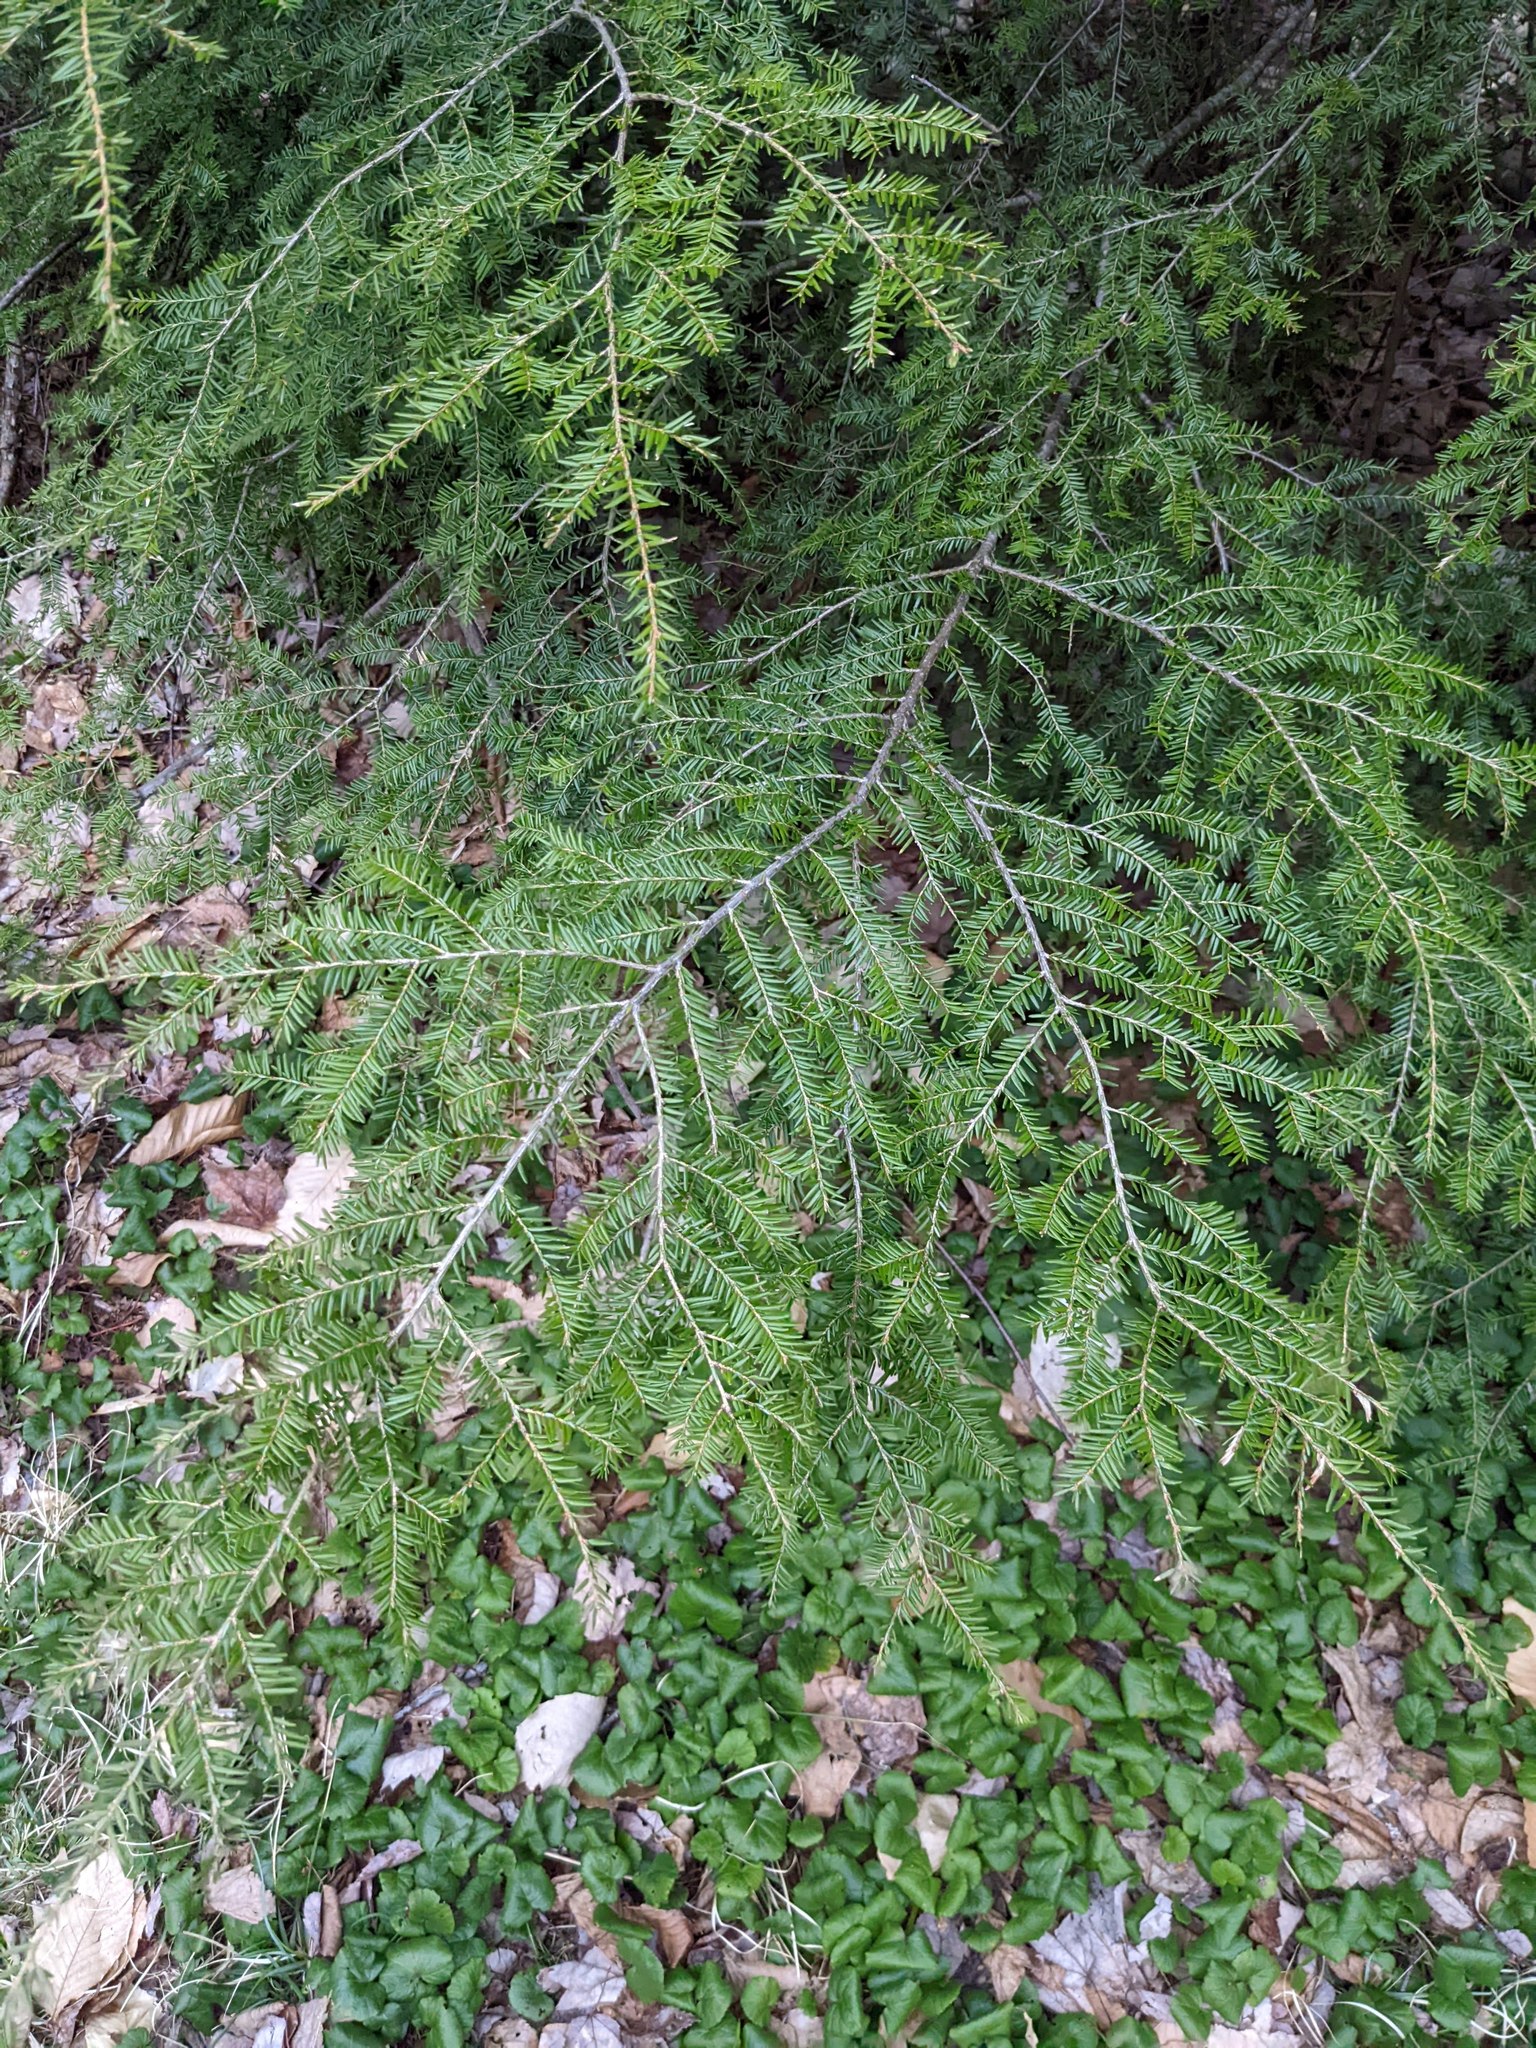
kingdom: Plantae
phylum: Tracheophyta
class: Pinopsida
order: Pinales
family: Pinaceae
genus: Tsuga
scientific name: Tsuga canadensis
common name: Eastern hemlock
